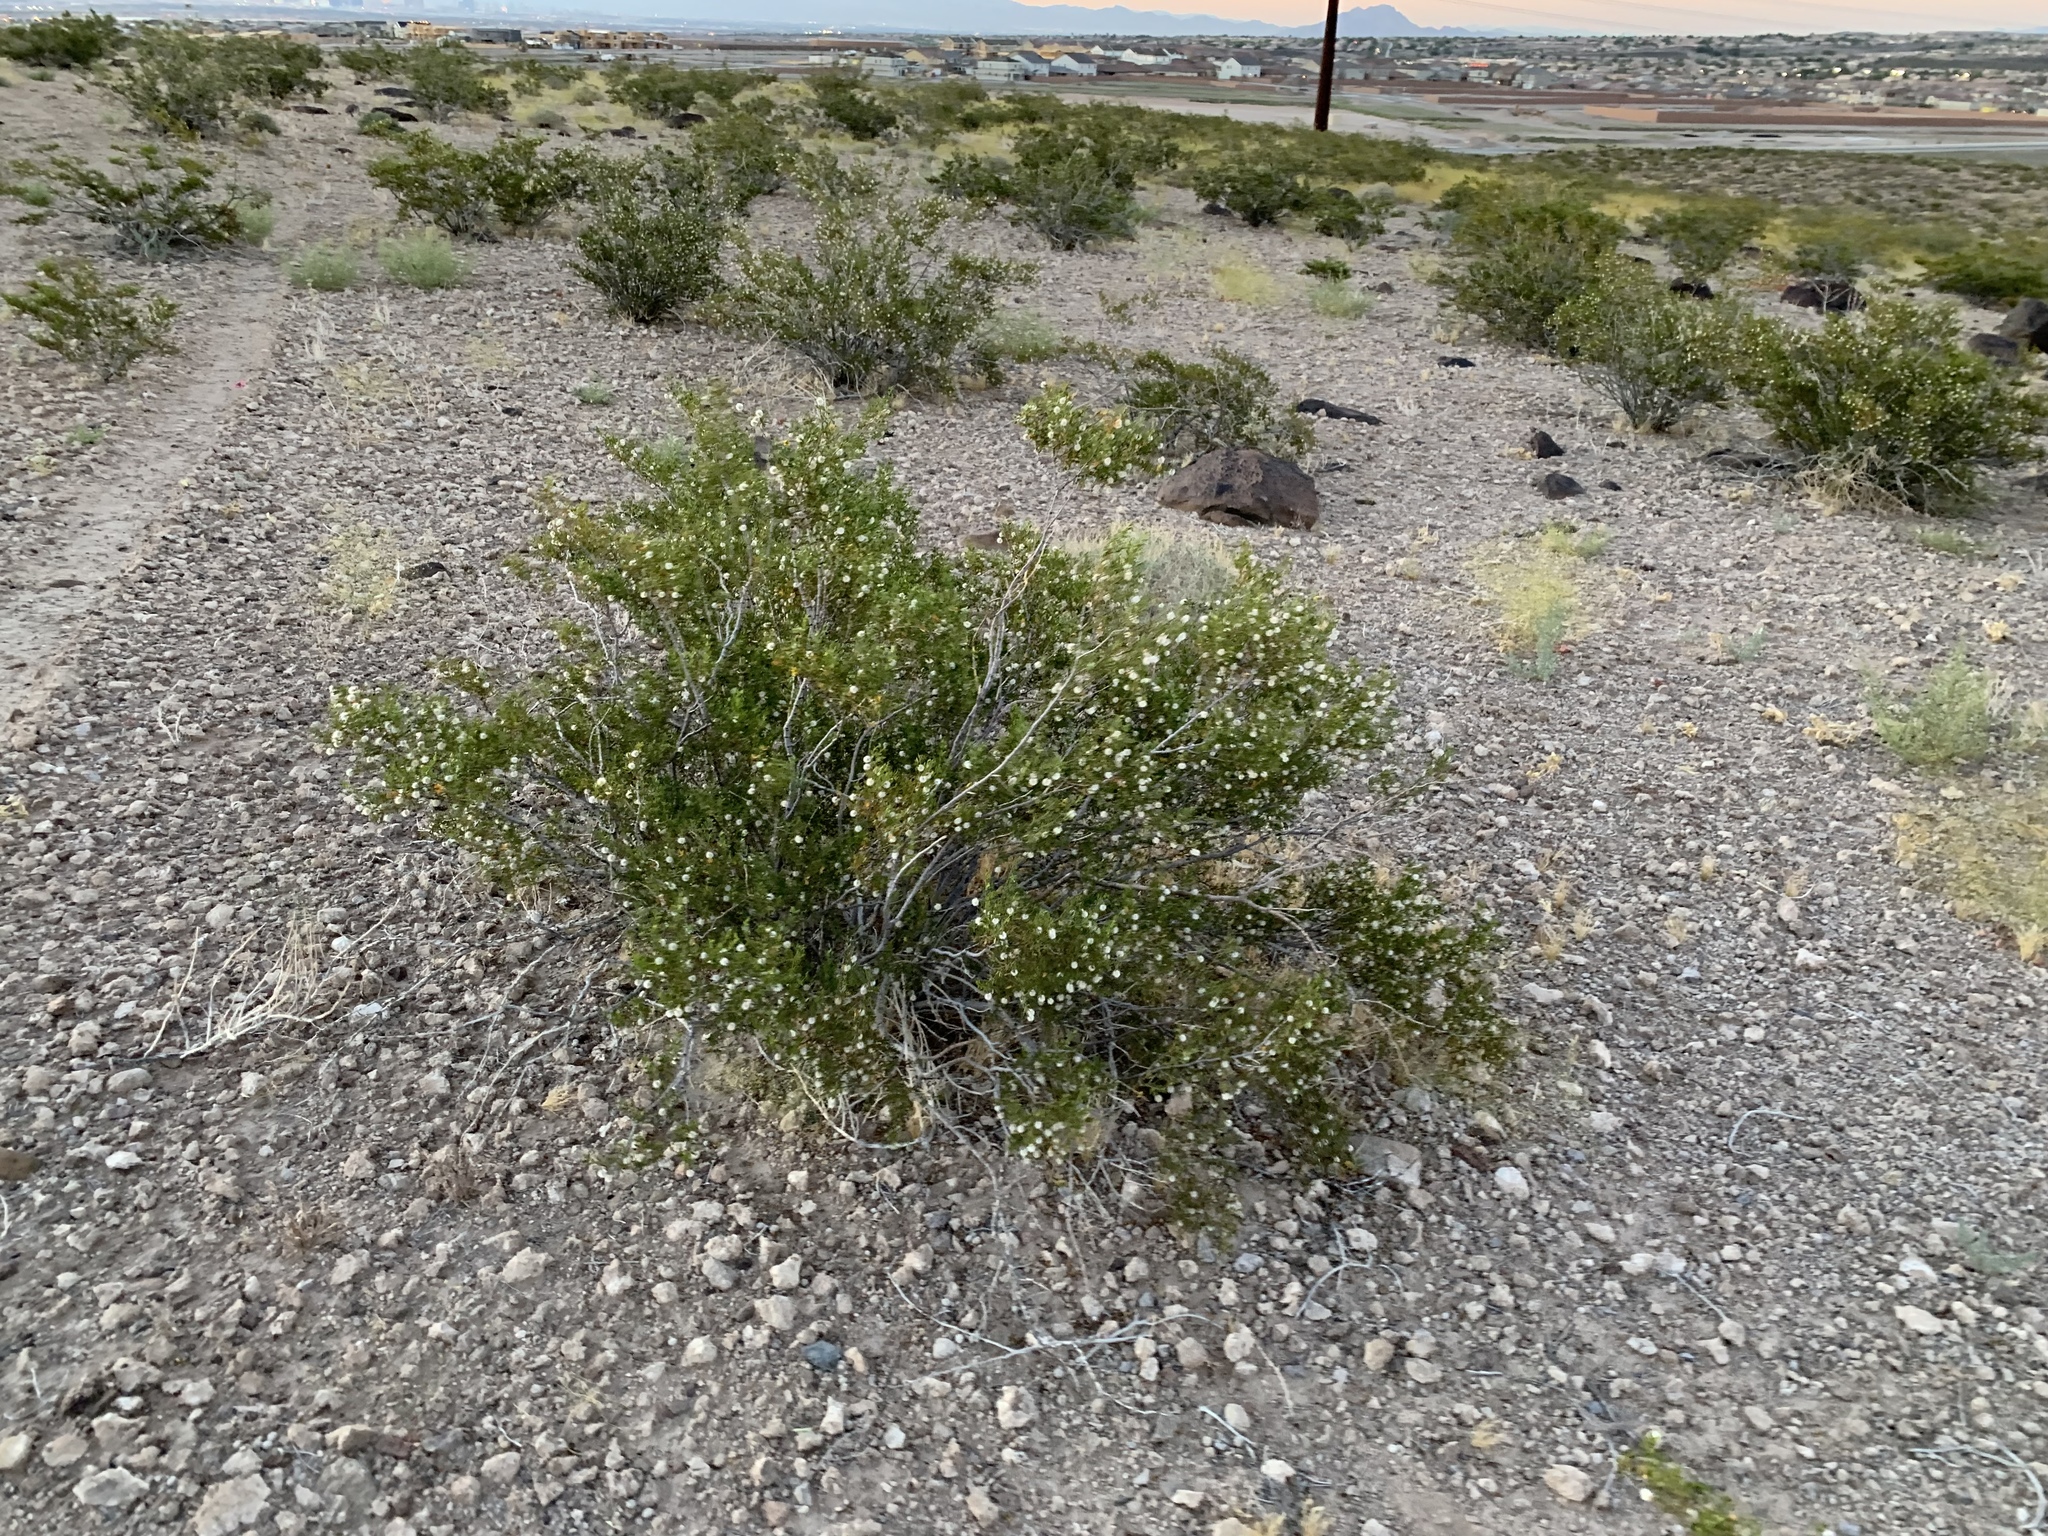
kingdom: Plantae
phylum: Tracheophyta
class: Magnoliopsida
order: Zygophyllales
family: Zygophyllaceae
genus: Larrea
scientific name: Larrea tridentata
